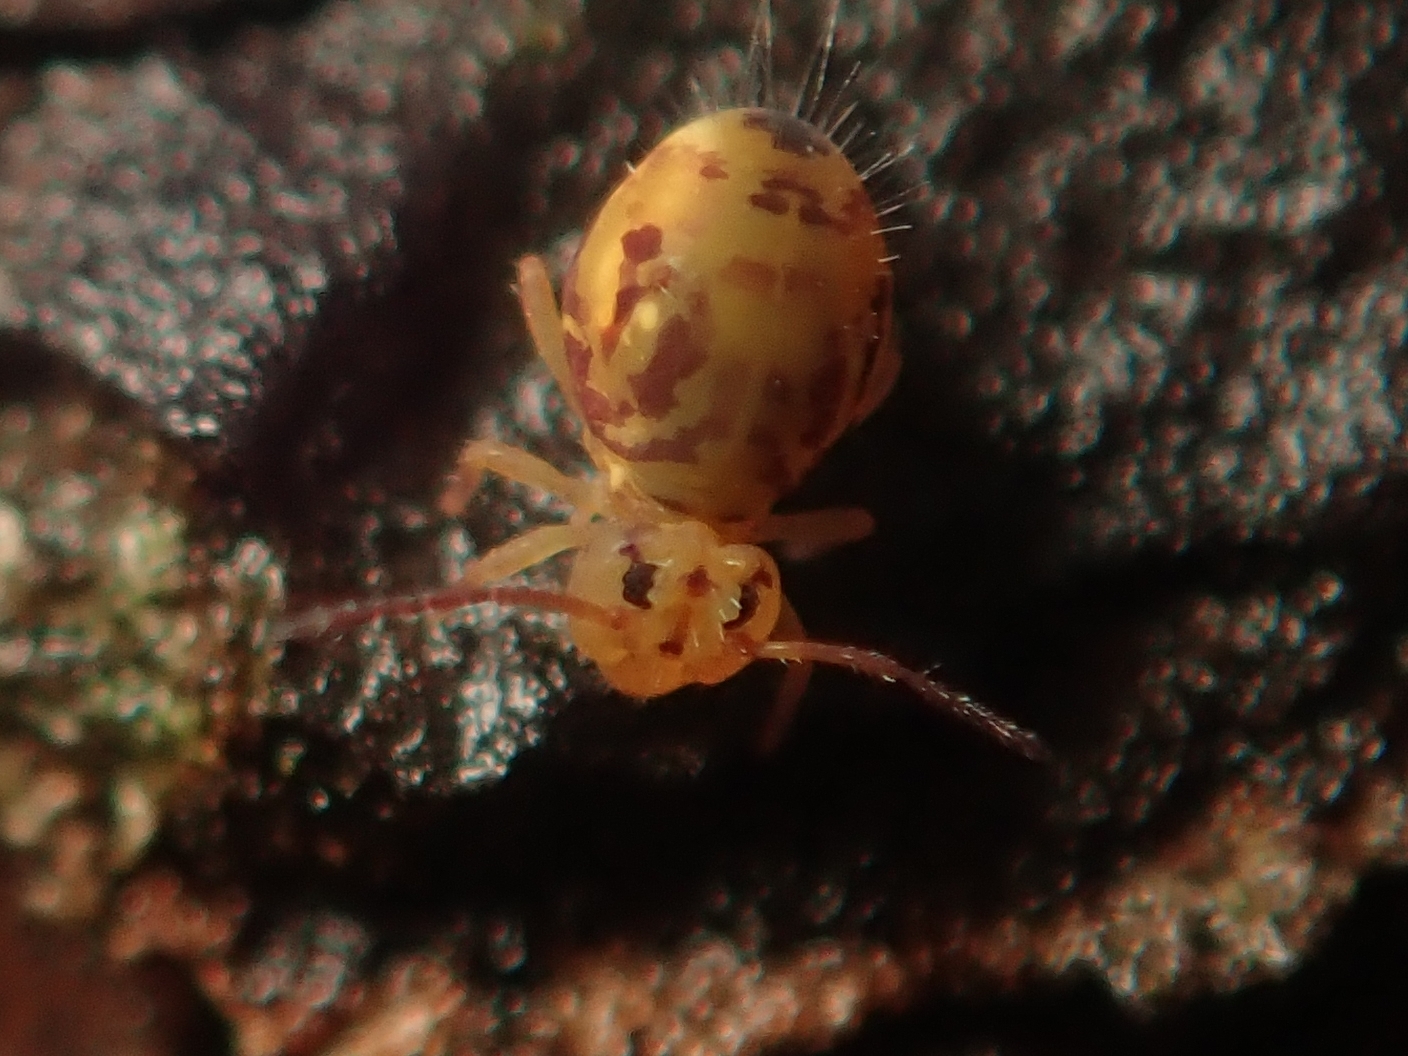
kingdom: Animalia
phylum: Arthropoda
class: Collembola
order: Symphypleona
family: Dicyrtomidae
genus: Dicyrtomina
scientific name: Dicyrtomina ornata
